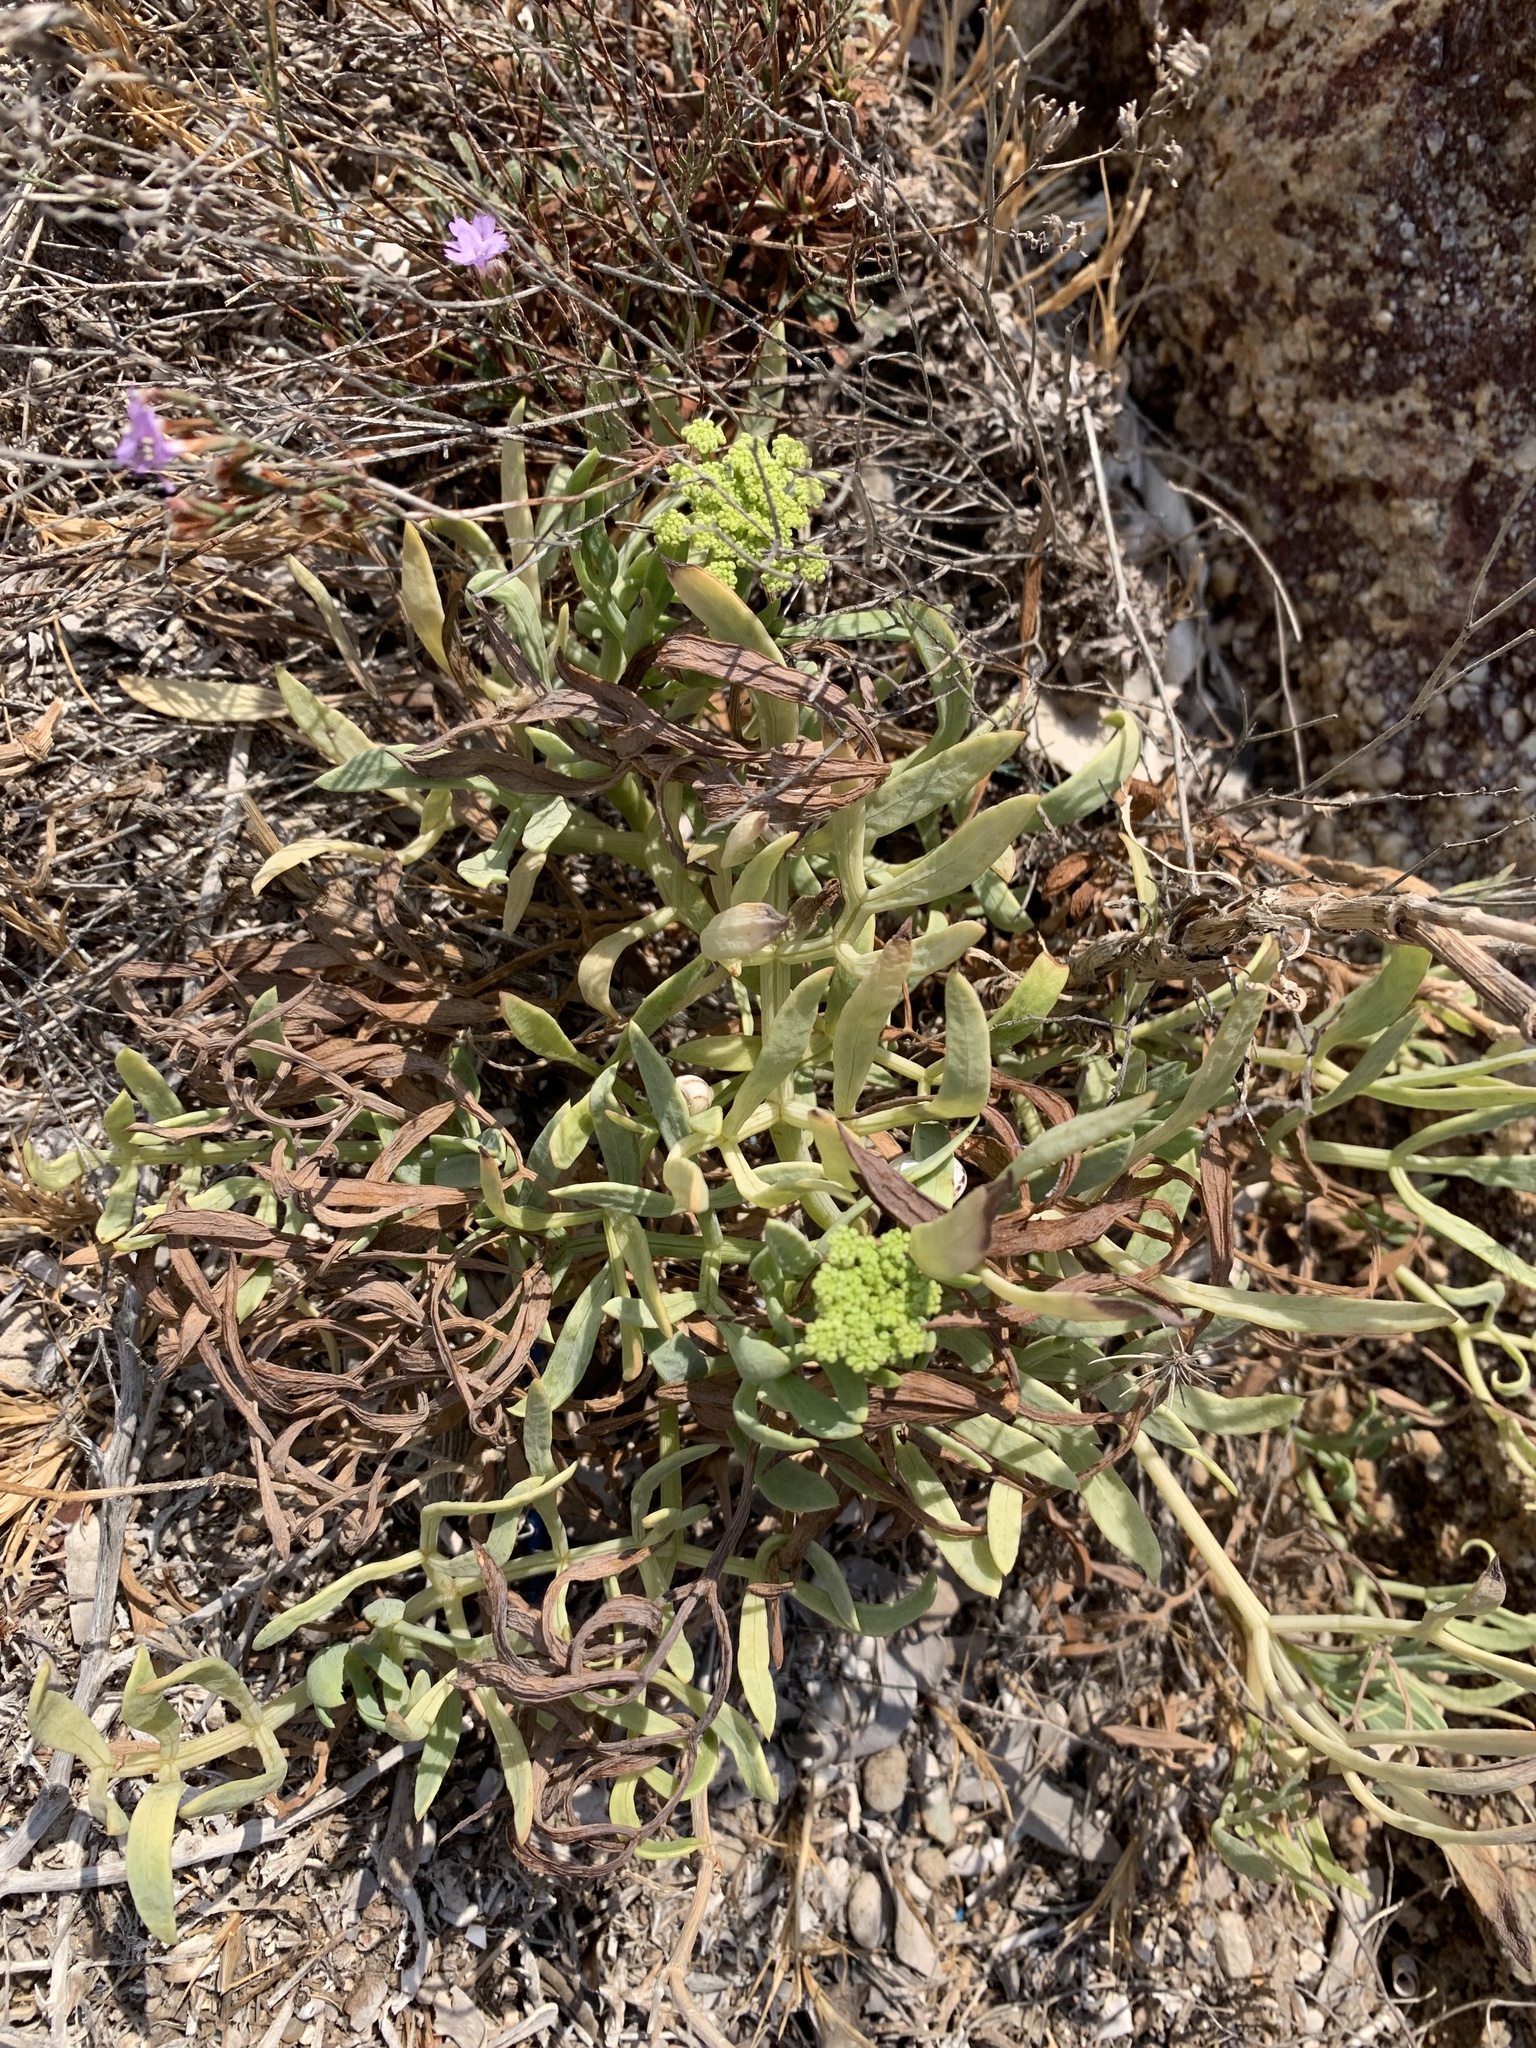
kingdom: Plantae
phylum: Tracheophyta
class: Magnoliopsida
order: Apiales
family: Apiaceae
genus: Crithmum
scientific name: Crithmum maritimum
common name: Rock samphire
